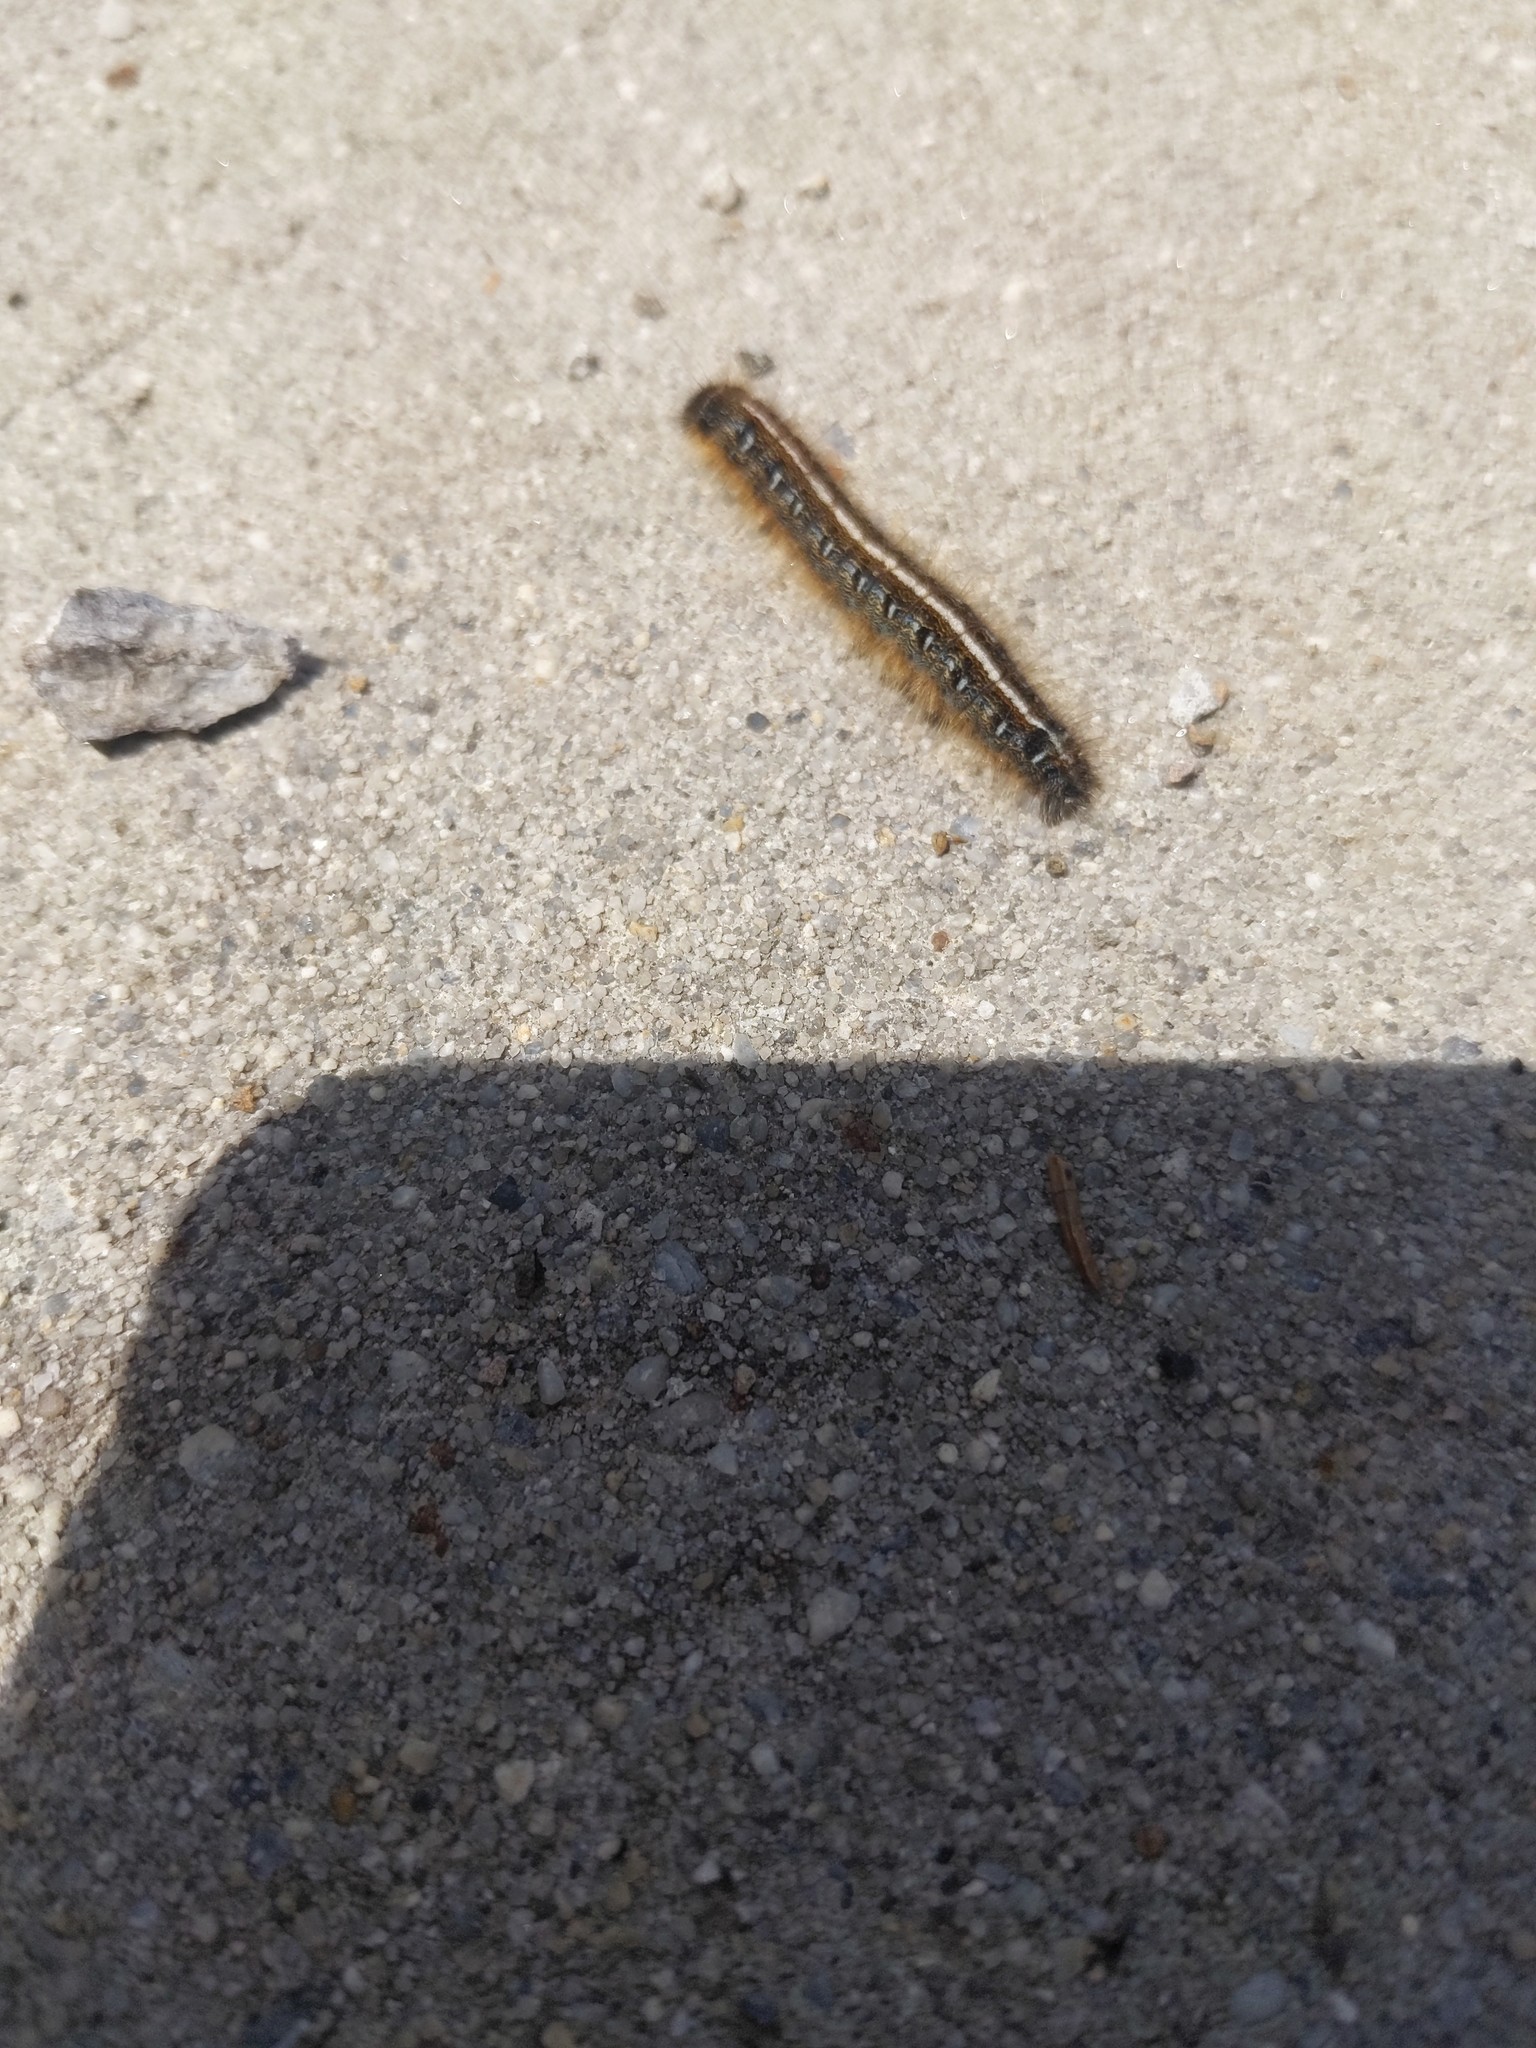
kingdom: Animalia
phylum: Arthropoda
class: Insecta
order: Lepidoptera
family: Lasiocampidae
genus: Malacosoma
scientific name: Malacosoma americana
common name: Eastern tent caterpillar moth
